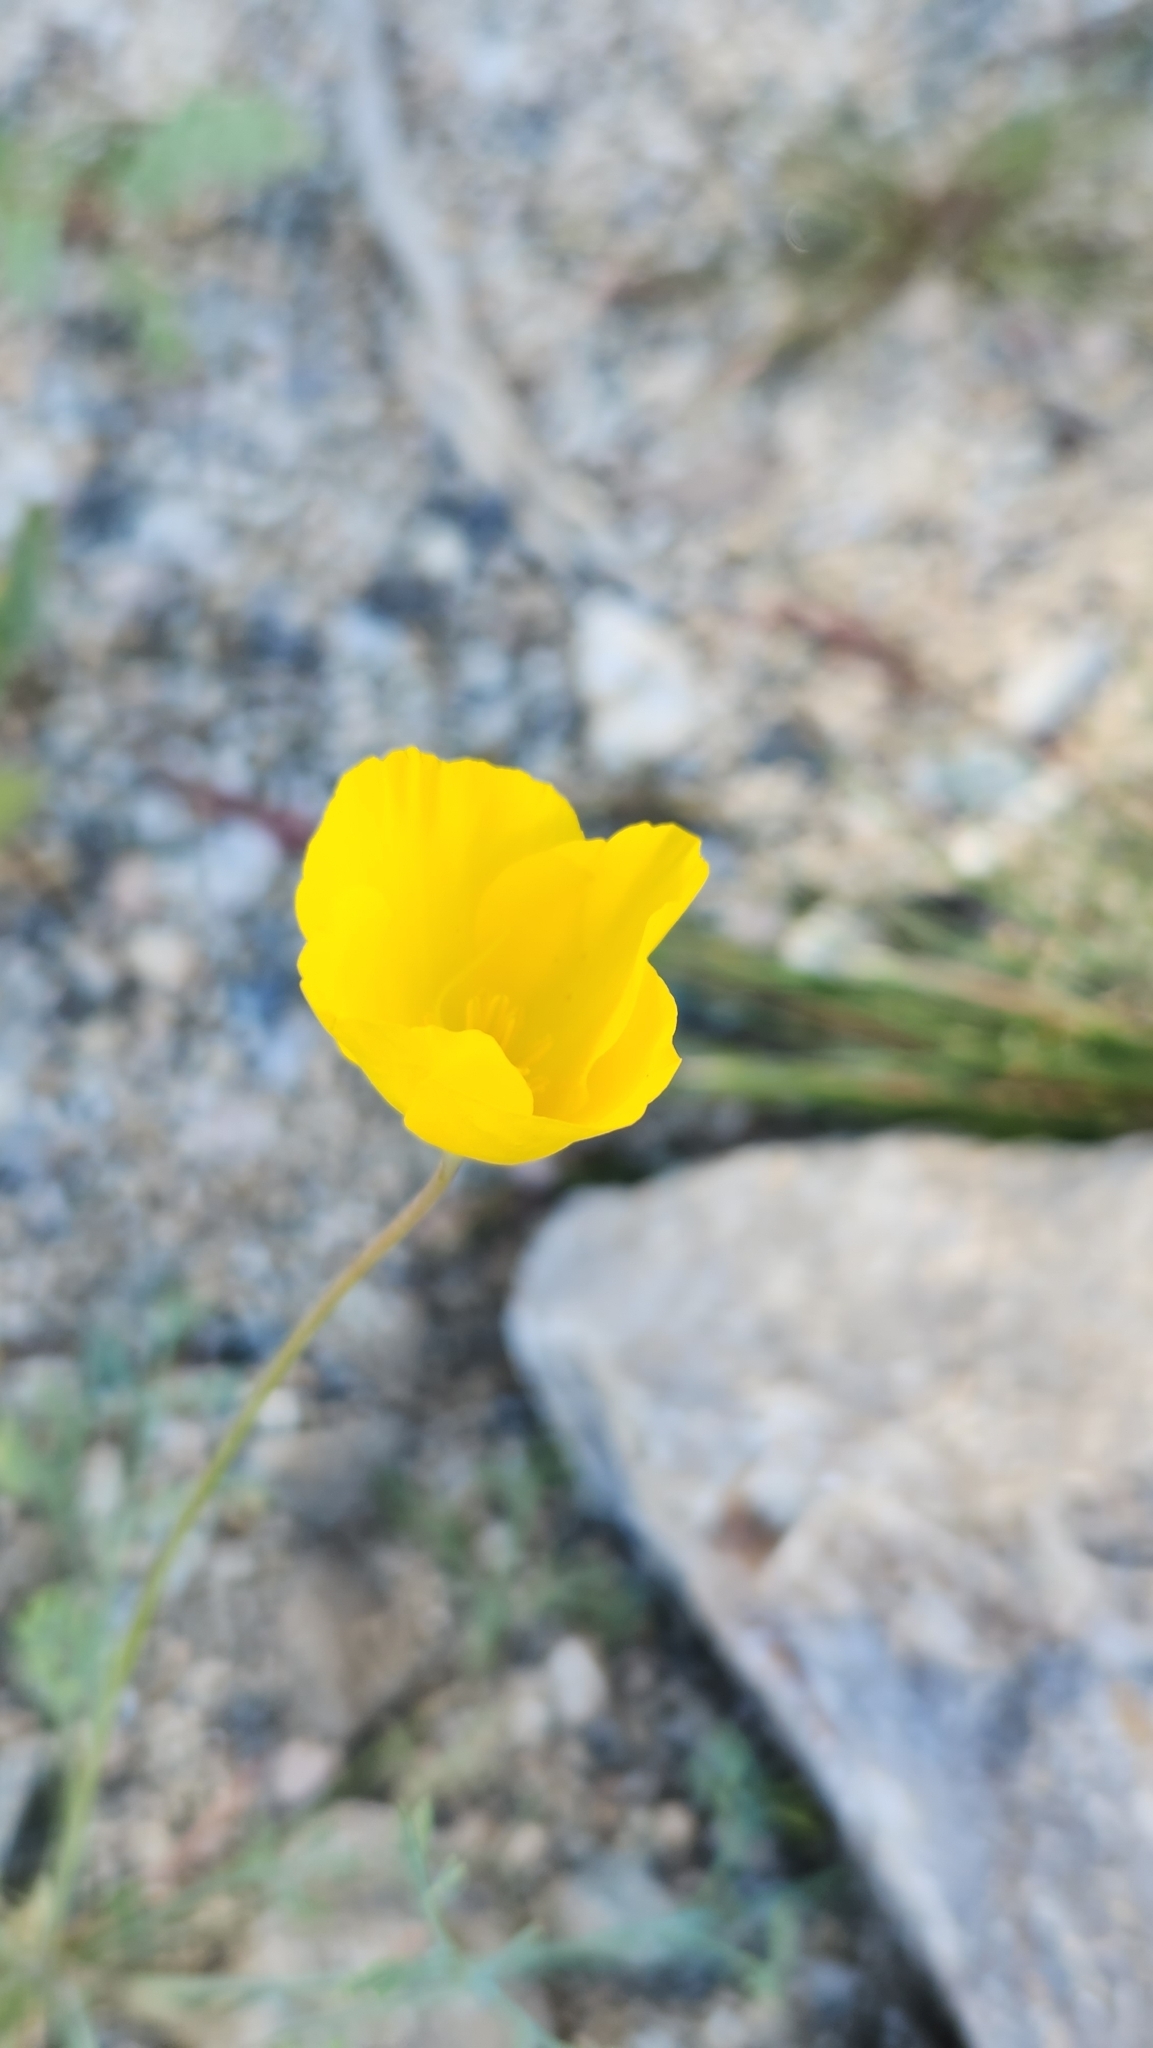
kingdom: Plantae
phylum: Tracheophyta
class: Magnoliopsida
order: Ranunculales
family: Papaveraceae
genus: Eschscholzia
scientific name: Eschscholzia parishii
